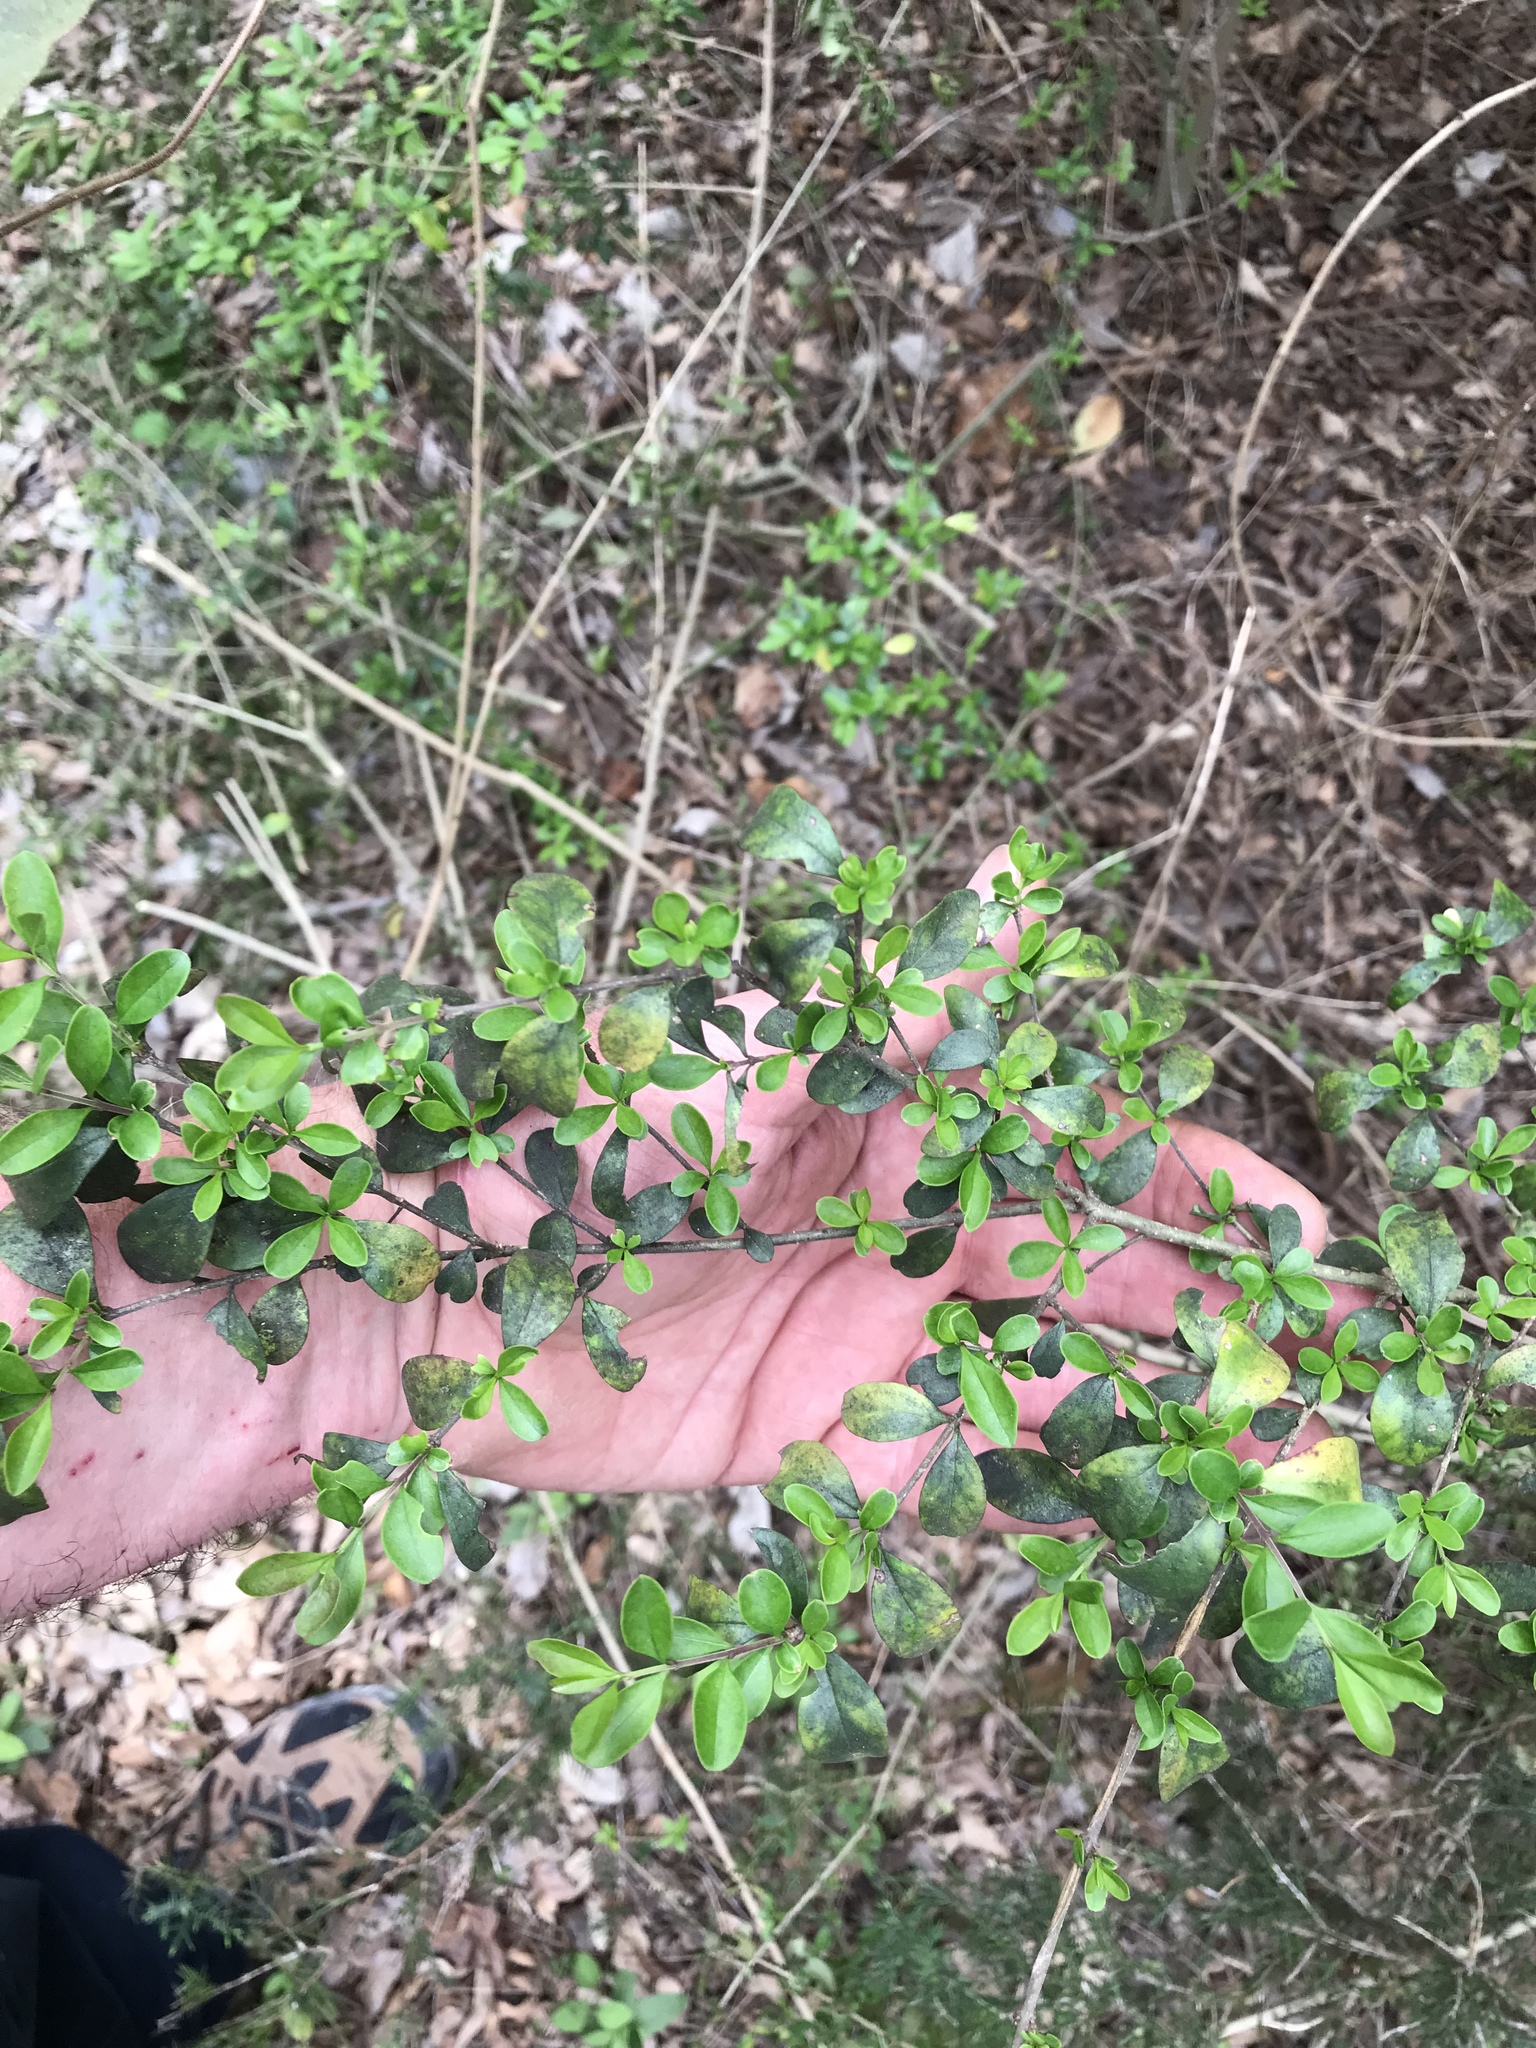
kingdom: Plantae
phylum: Tracheophyta
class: Magnoliopsida
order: Lamiales
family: Oleaceae
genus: Ligustrum
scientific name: Ligustrum quihoui
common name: Waxyleaf privet
